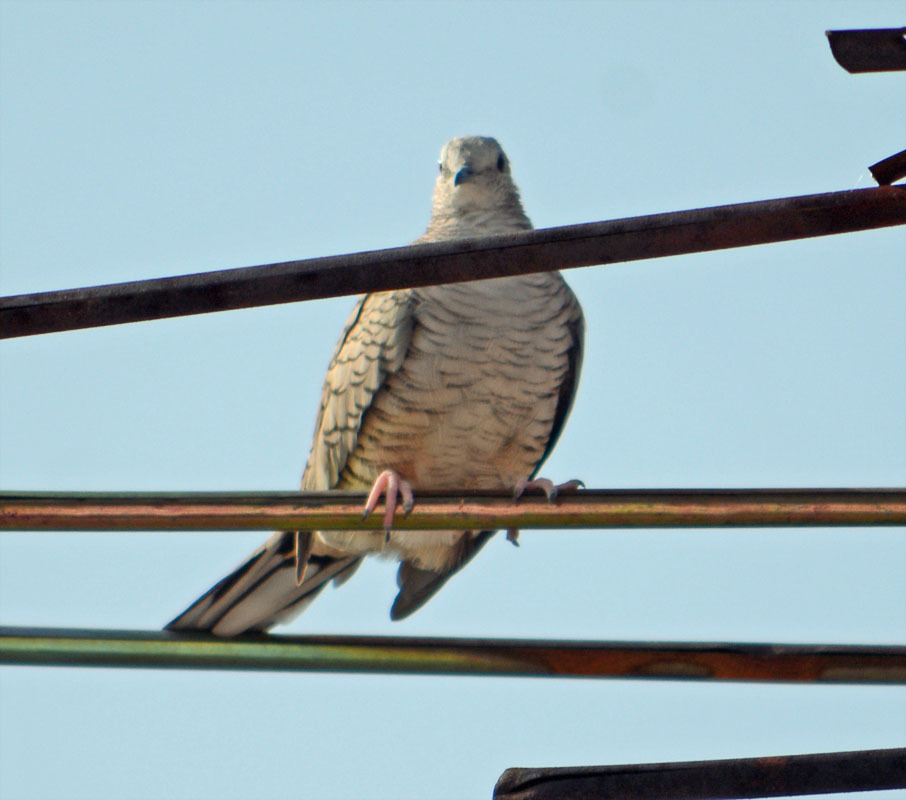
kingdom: Animalia
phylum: Chordata
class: Aves
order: Columbiformes
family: Columbidae
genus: Columbina
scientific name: Columbina inca
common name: Inca dove
